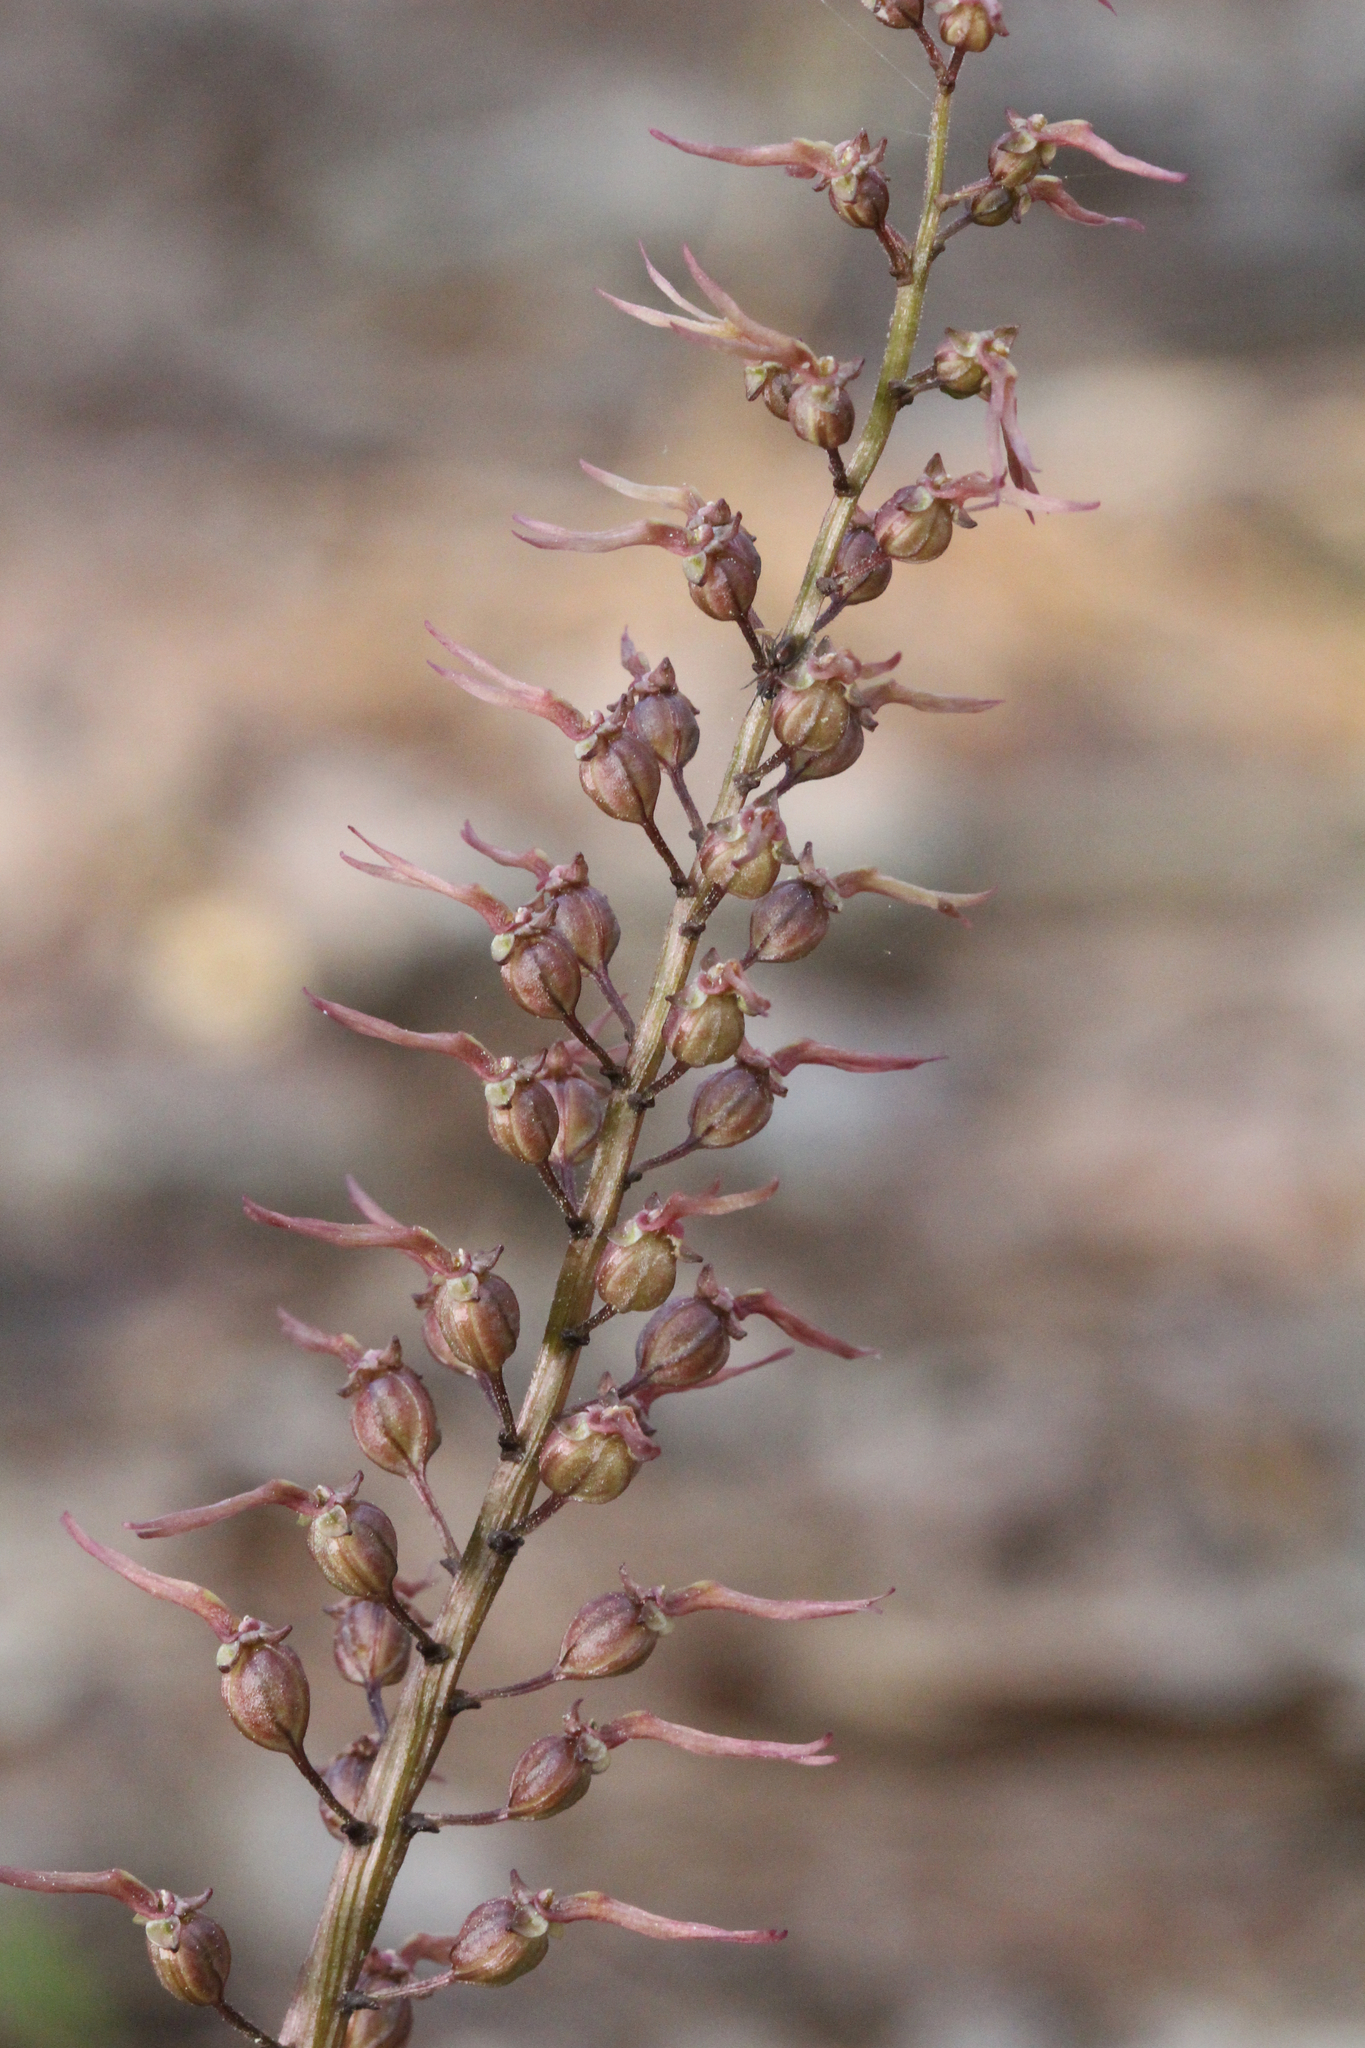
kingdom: Plantae
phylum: Tracheophyta
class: Liliopsida
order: Asparagales
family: Orchidaceae
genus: Neottia
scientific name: Neottia bifolia
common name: Southern twayblade
